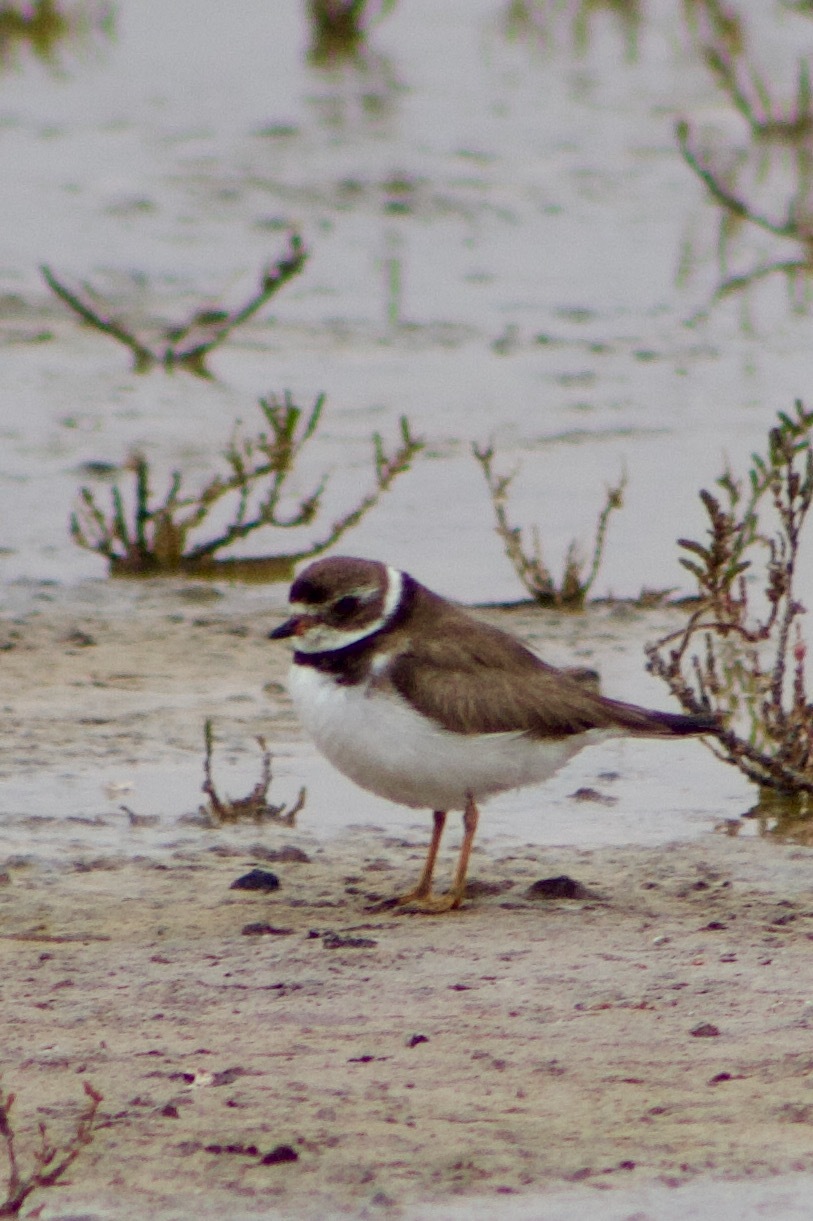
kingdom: Animalia
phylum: Chordata
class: Aves
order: Charadriiformes
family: Charadriidae
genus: Charadrius
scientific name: Charadrius semipalmatus
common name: Semipalmated plover
